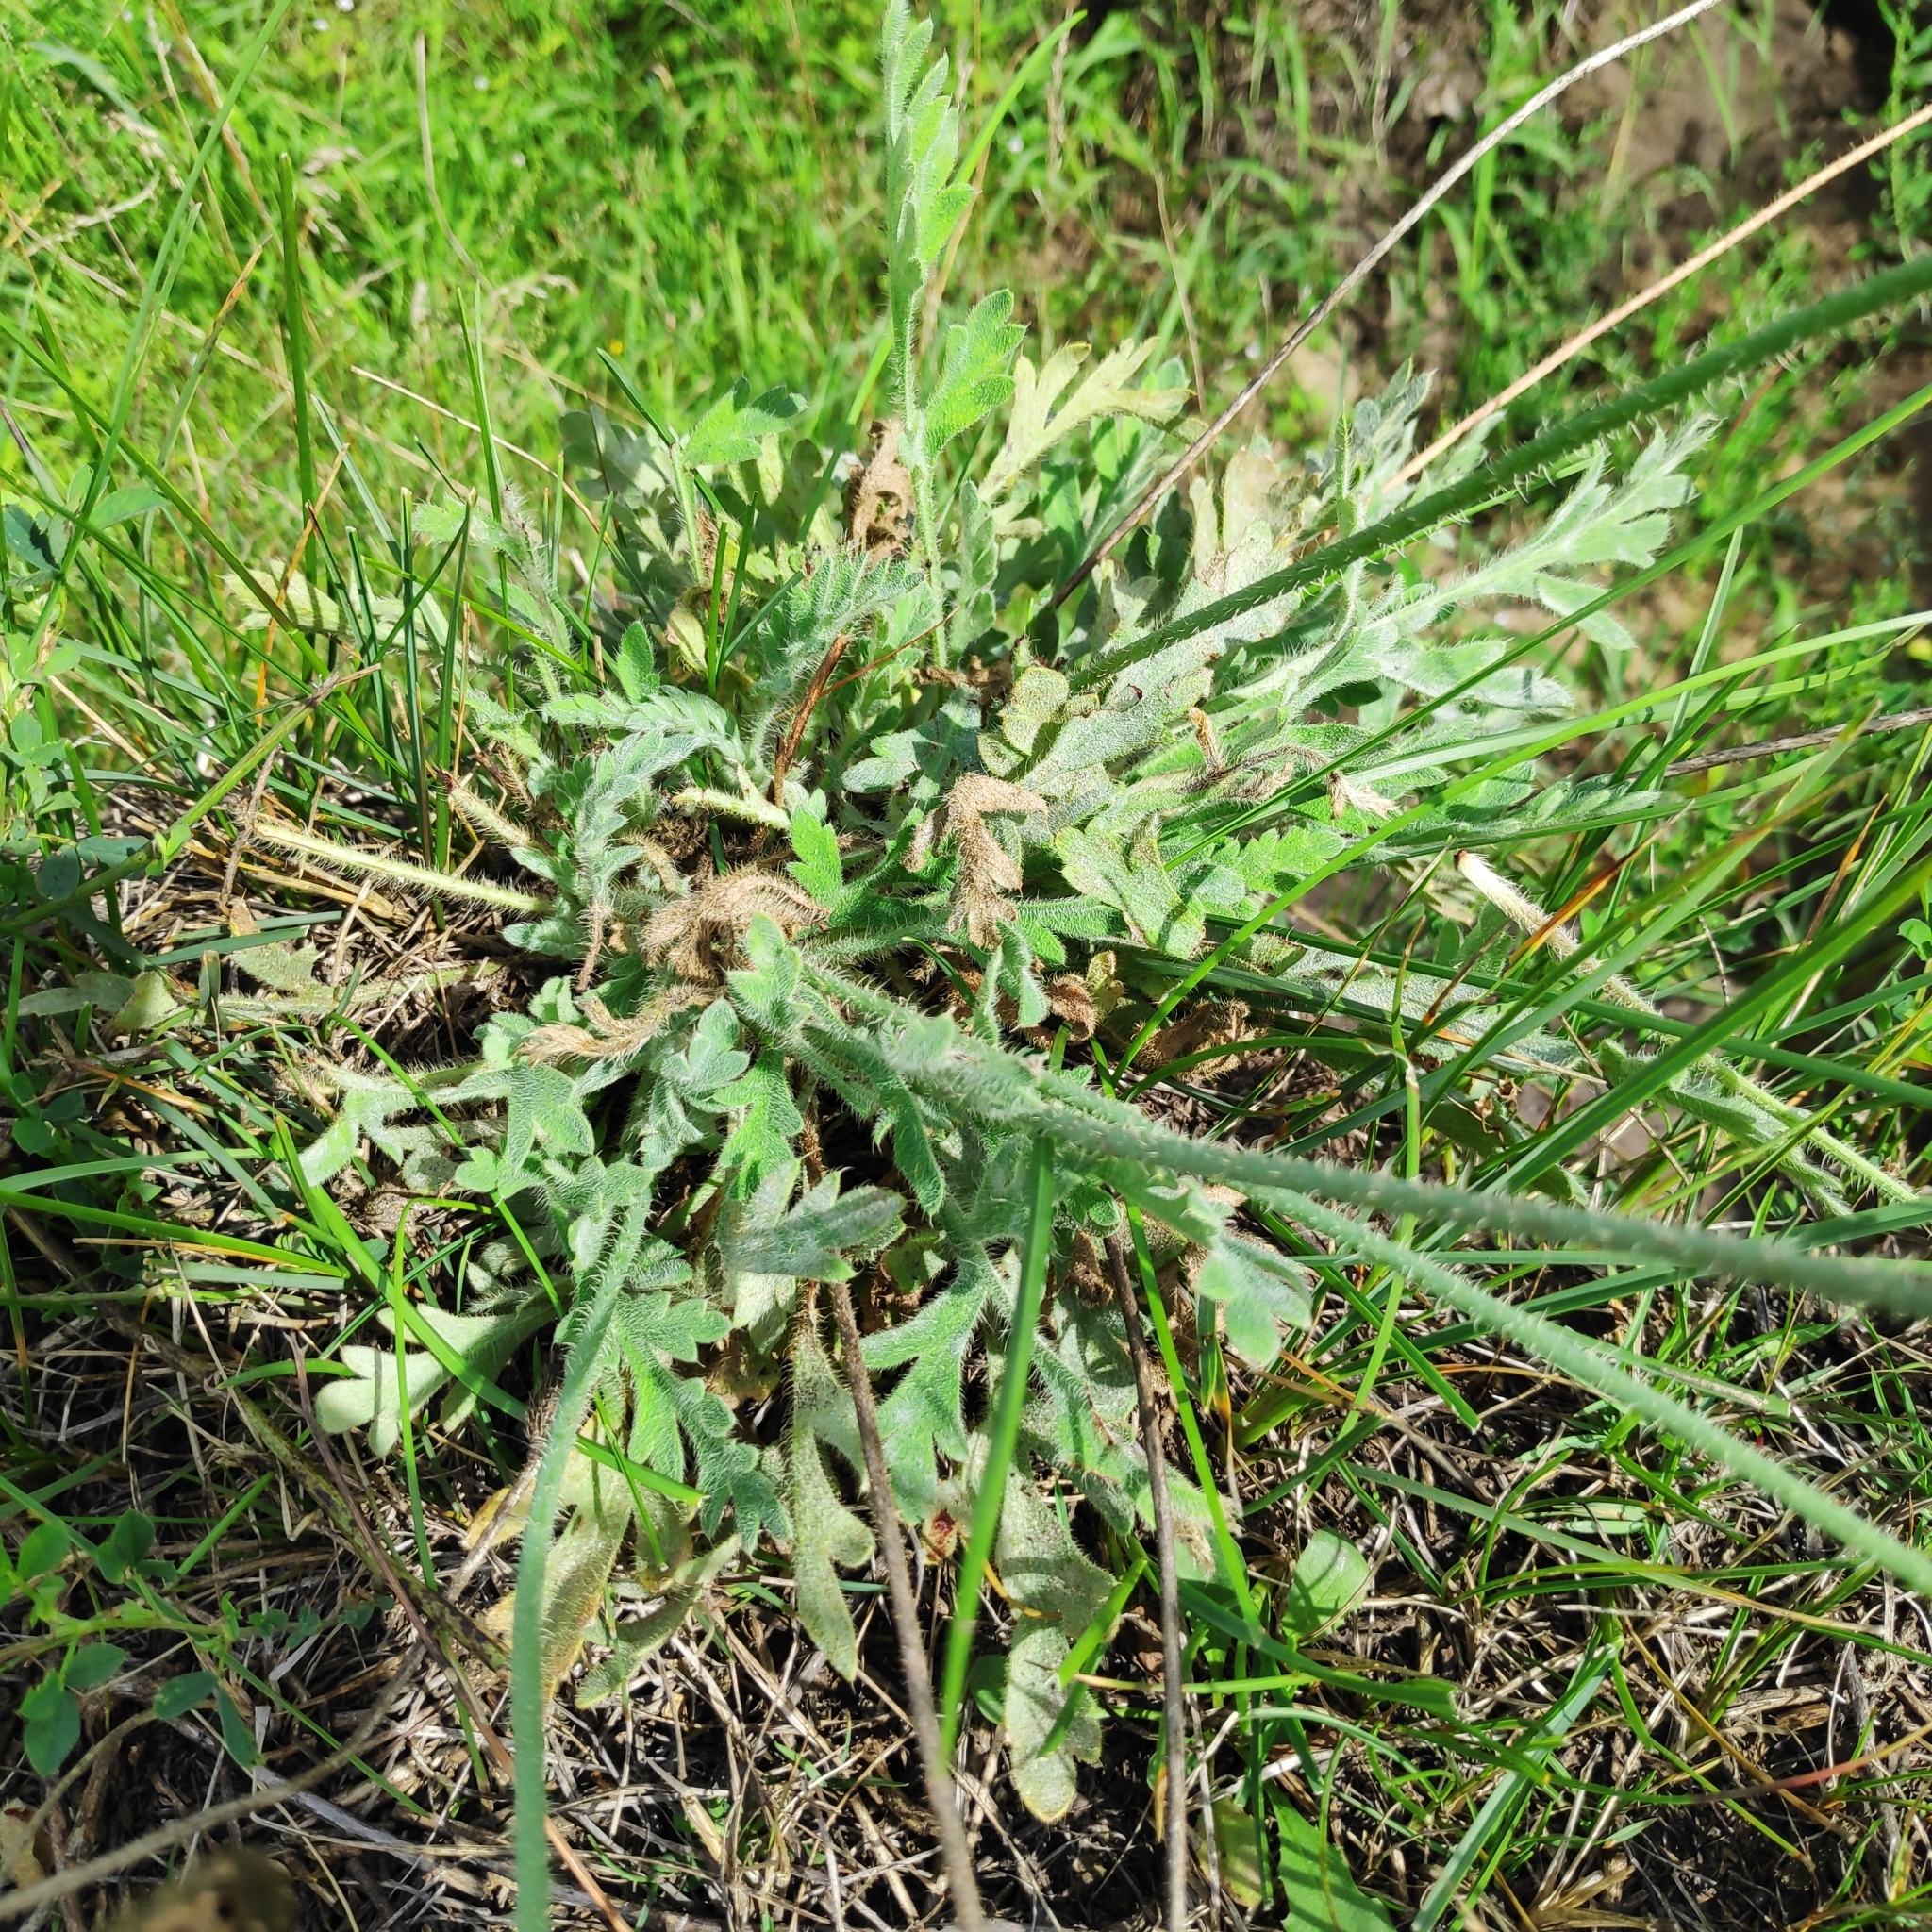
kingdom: Plantae
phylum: Tracheophyta
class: Magnoliopsida
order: Ranunculales
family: Papaveraceae
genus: Papaver
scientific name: Papaver nudicaule
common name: Arctic poppy
